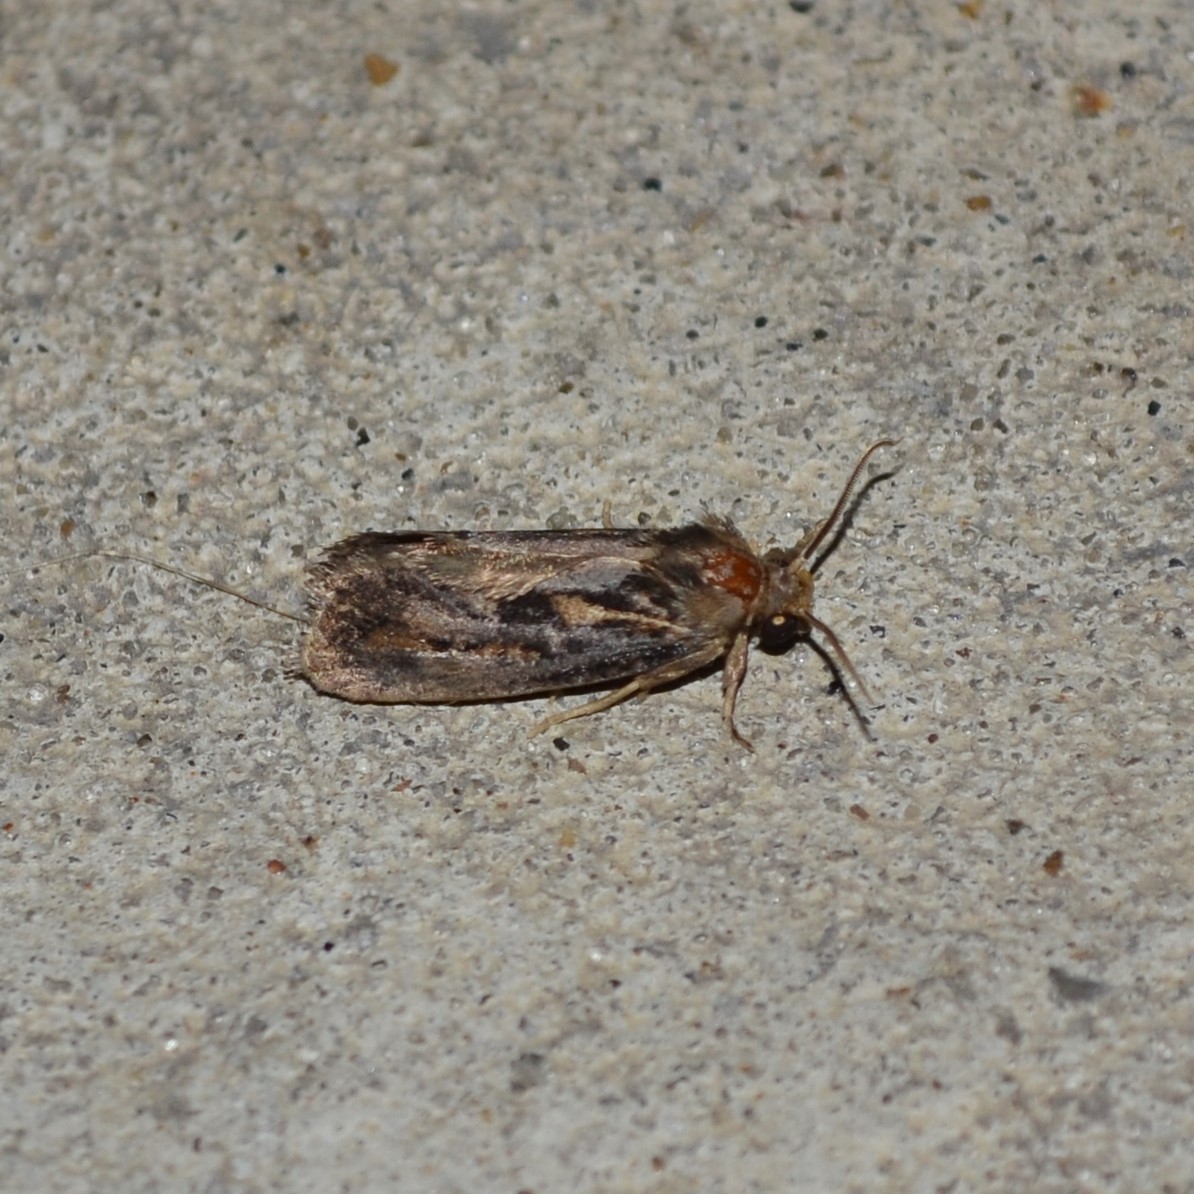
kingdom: Animalia
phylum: Arthropoda
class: Insecta
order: Lepidoptera
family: Tineidae
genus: Acrolophus
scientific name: Acrolophus popeanella
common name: Clemens' grass tubeworm moth
